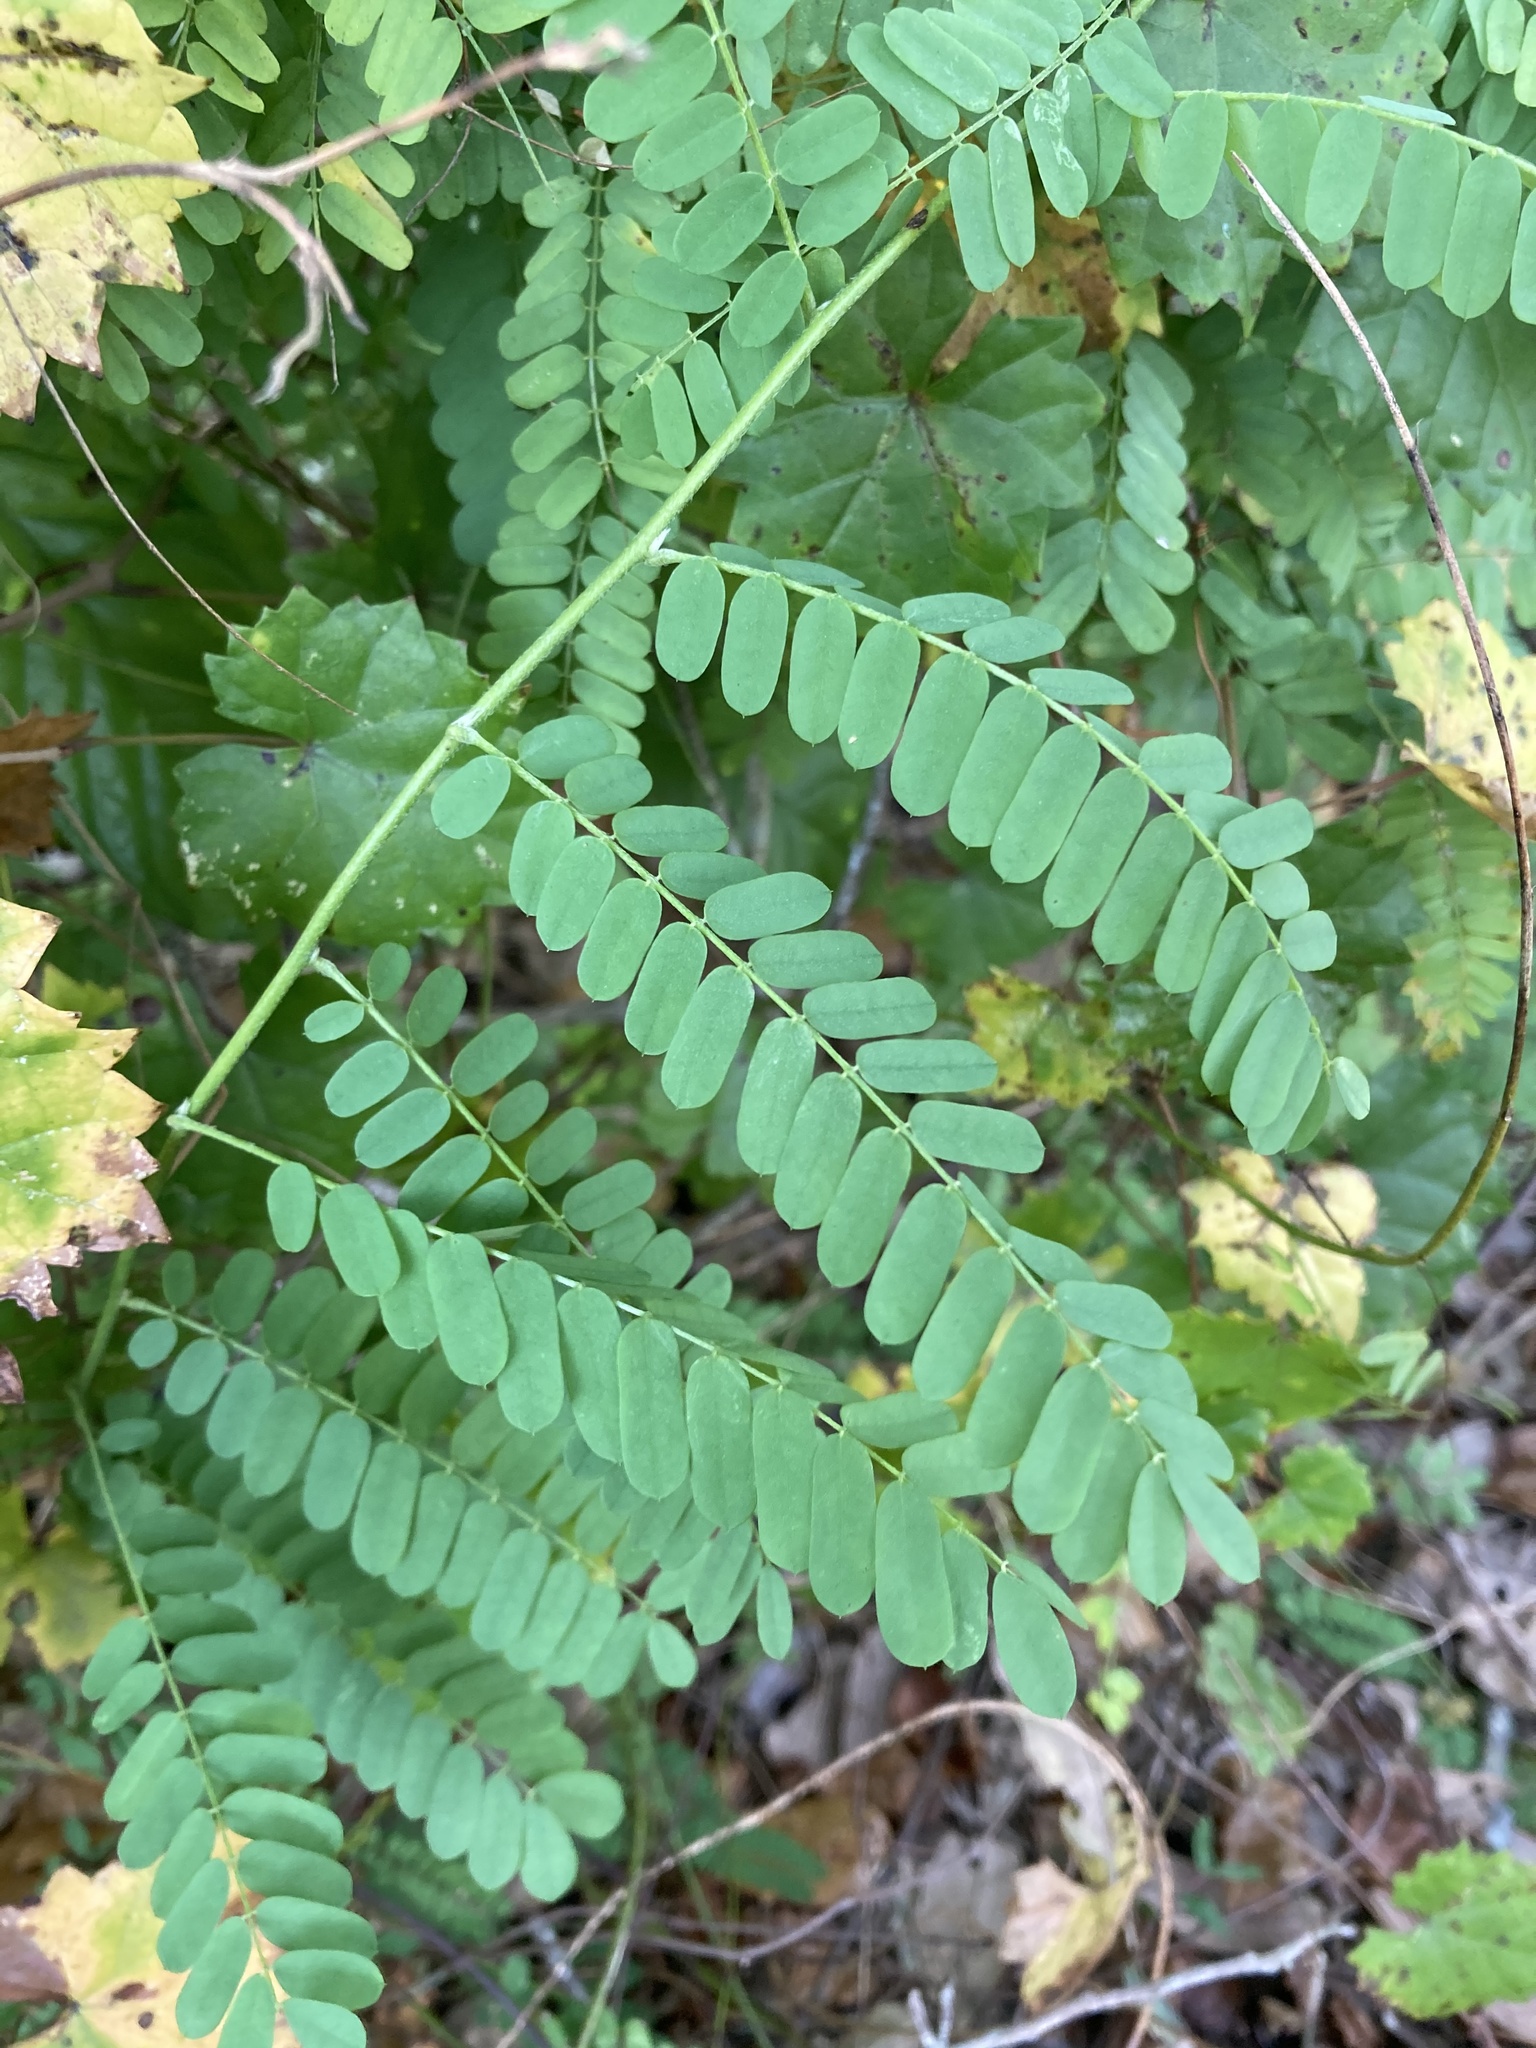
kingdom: Plantae
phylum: Tracheophyta
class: Magnoliopsida
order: Fabales
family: Fabaceae
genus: Abrus
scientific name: Abrus precatorius
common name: Rosarypea
